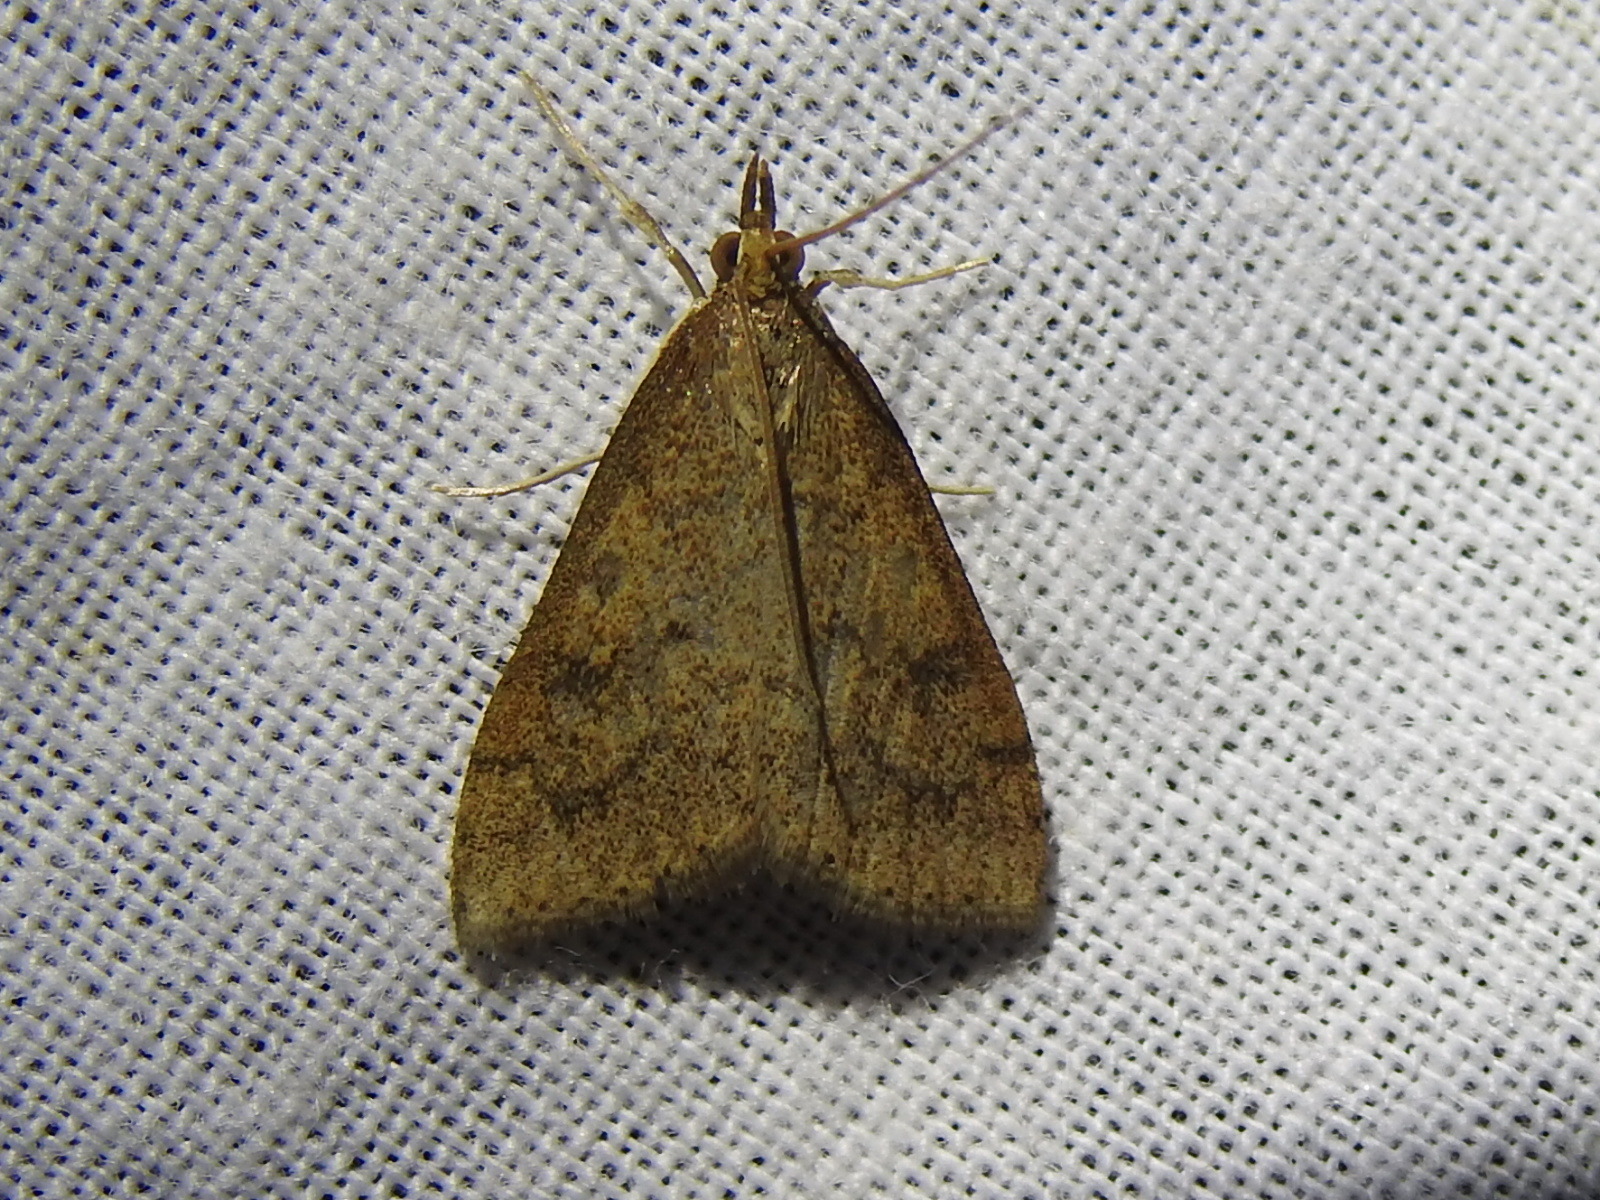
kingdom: Animalia
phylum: Arthropoda
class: Insecta
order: Lepidoptera
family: Crambidae
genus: Udea
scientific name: Udea rubigalis
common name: Celery leaftier moth
